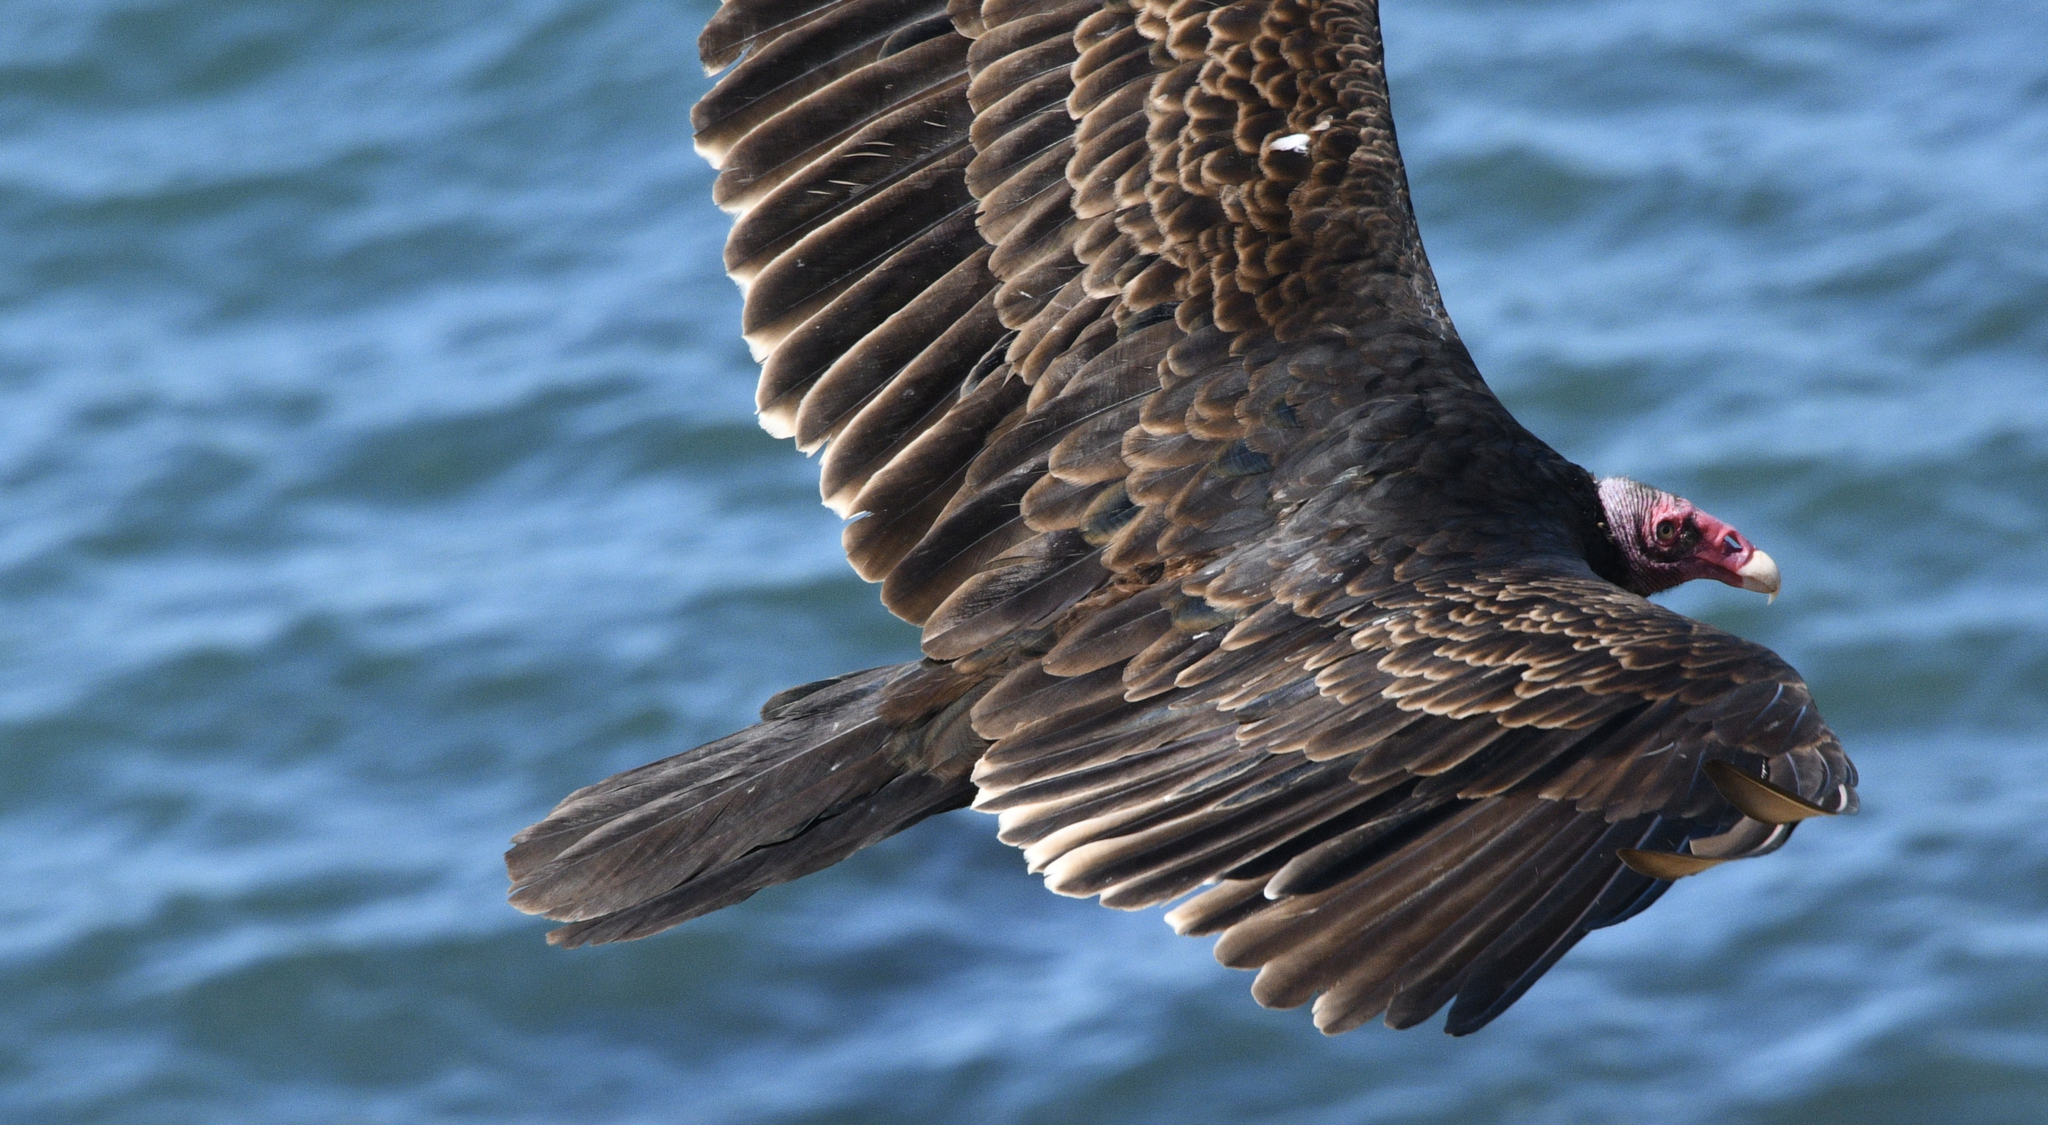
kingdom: Animalia
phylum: Chordata
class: Aves
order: Accipitriformes
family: Cathartidae
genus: Cathartes
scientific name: Cathartes aura
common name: Turkey vulture
